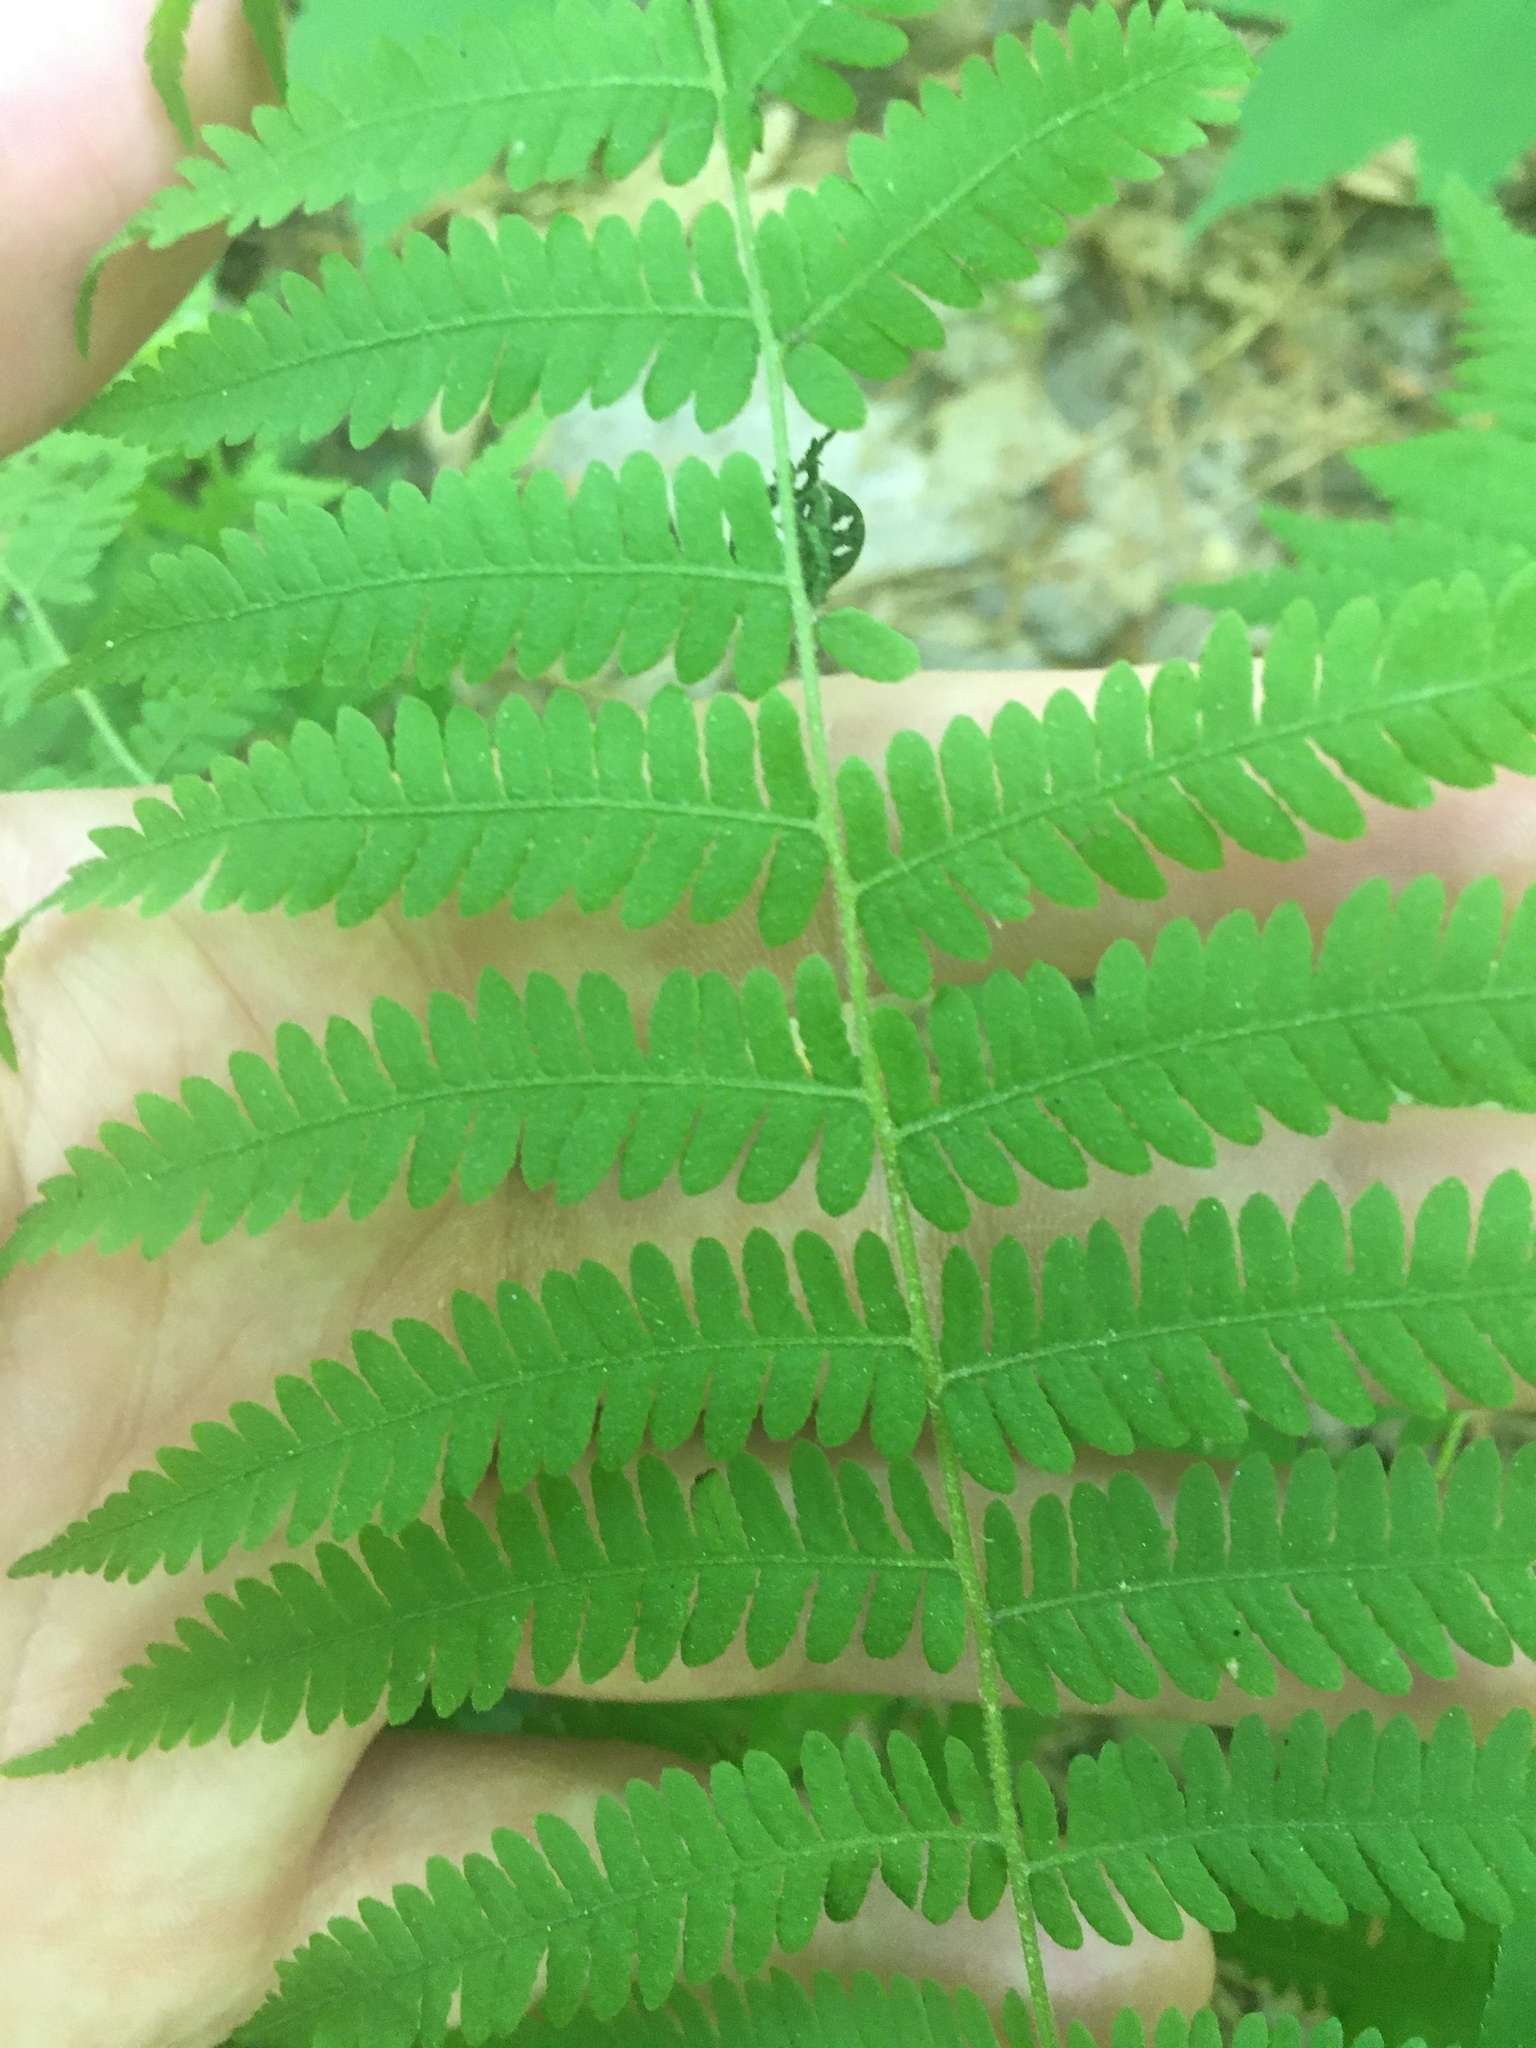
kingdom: Plantae
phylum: Tracheophyta
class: Polypodiopsida
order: Polypodiales
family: Thelypteridaceae
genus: Amauropelta
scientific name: Amauropelta noveboracensis
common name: New york fern
